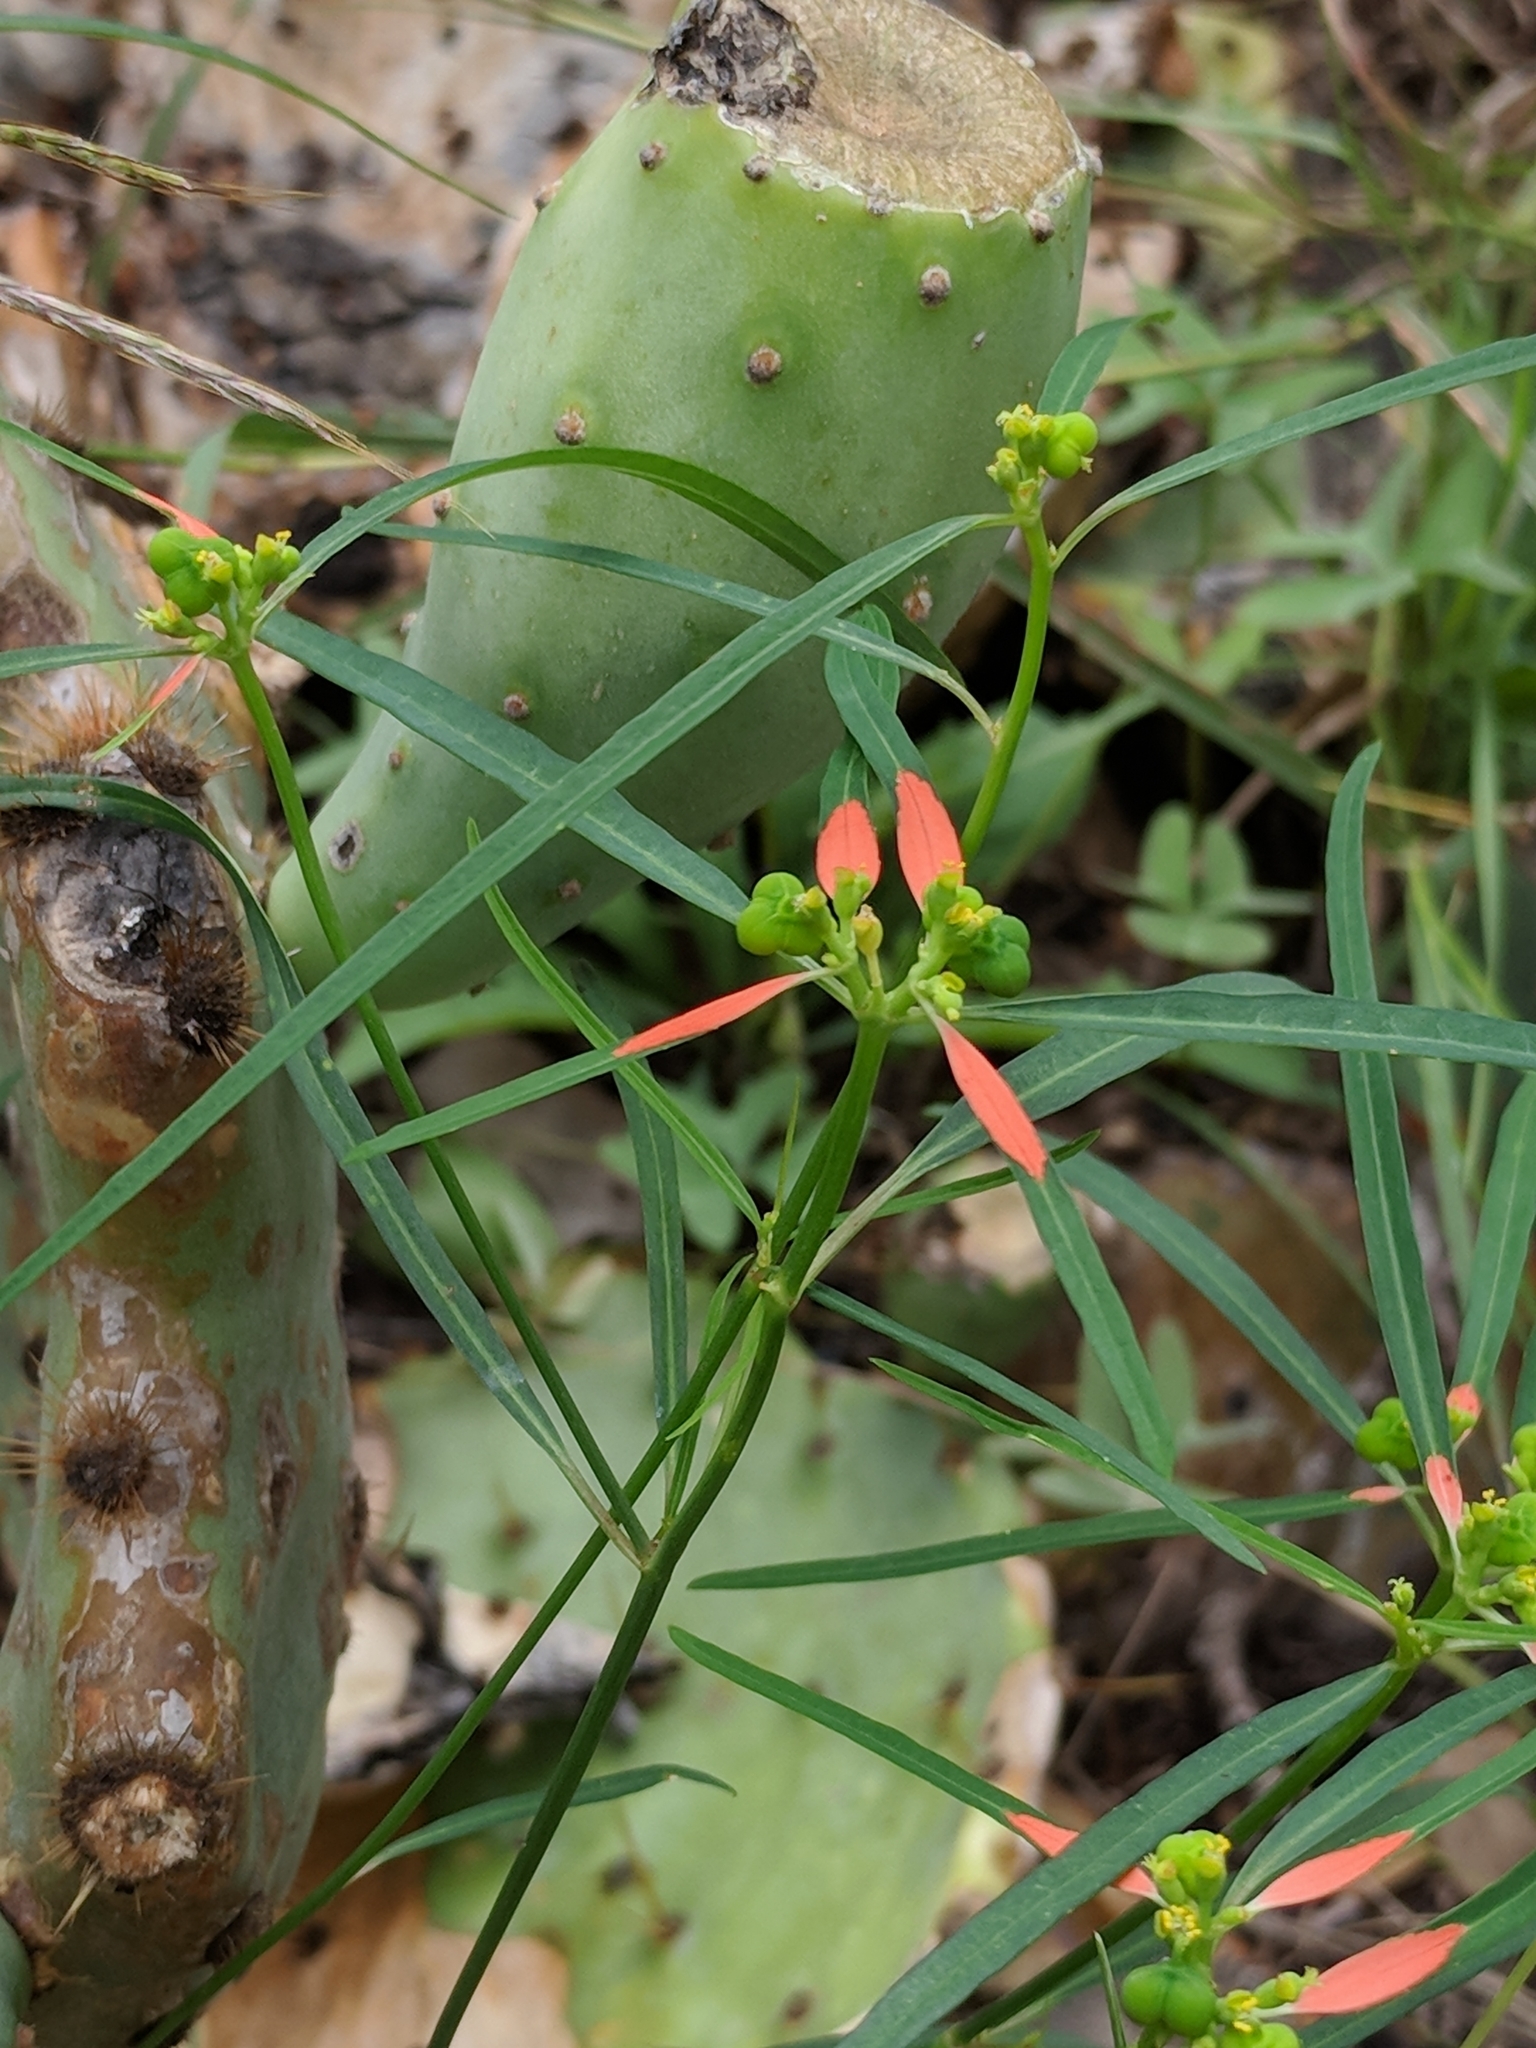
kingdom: Plantae
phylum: Tracheophyta
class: Magnoliopsida
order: Malpighiales
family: Euphorbiaceae
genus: Euphorbia
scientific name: Euphorbia heterophylla
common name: Mexican fireplant
